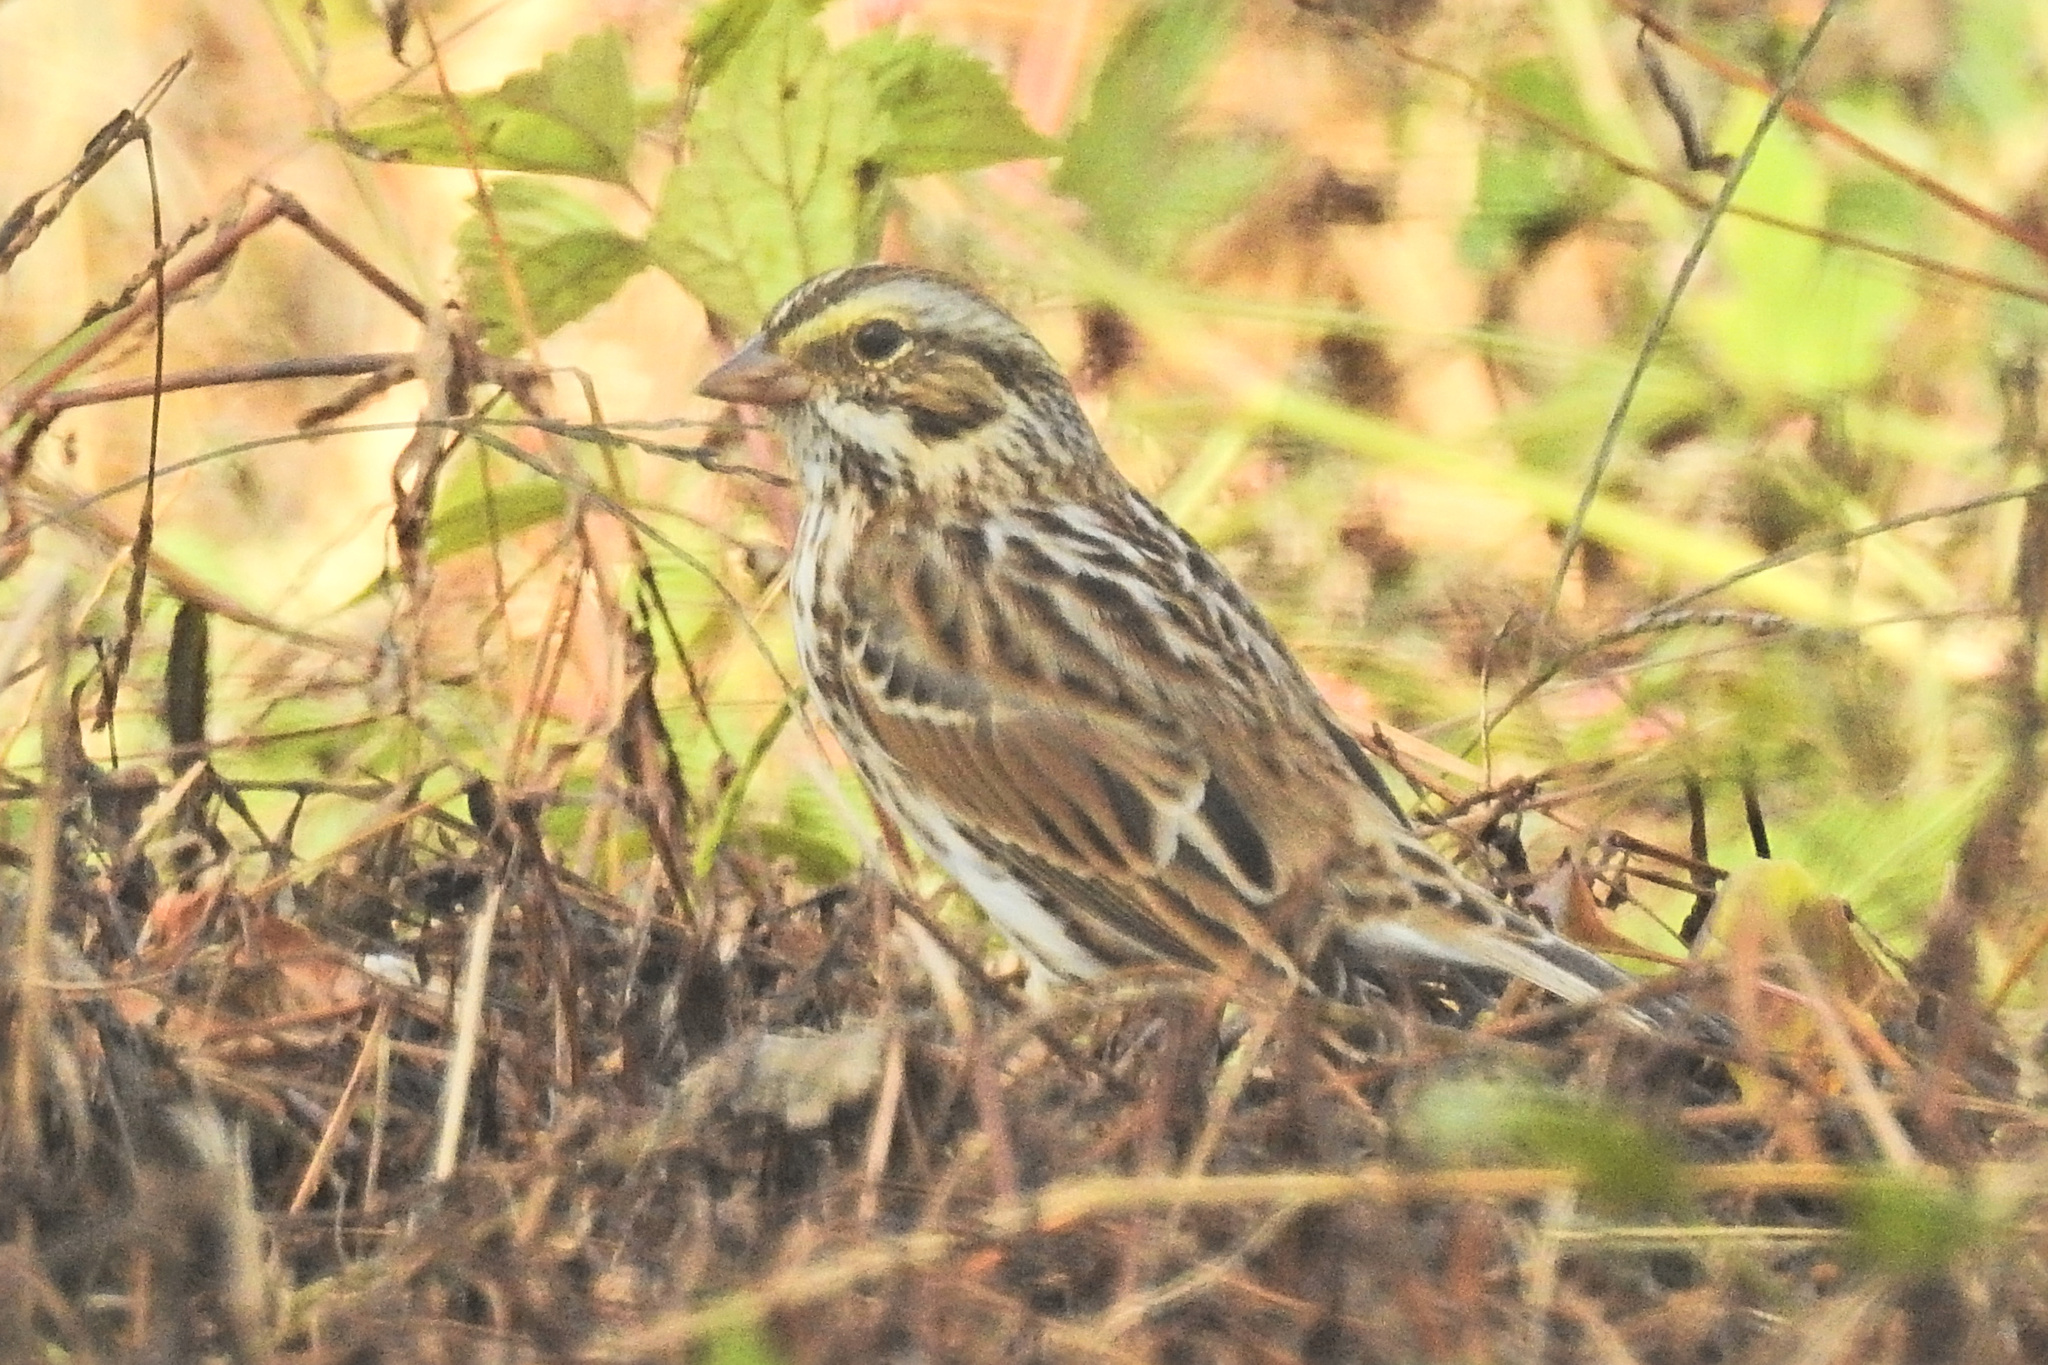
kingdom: Animalia
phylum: Chordata
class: Aves
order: Passeriformes
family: Passerellidae
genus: Passerculus
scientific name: Passerculus sandwichensis
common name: Savannah sparrow
